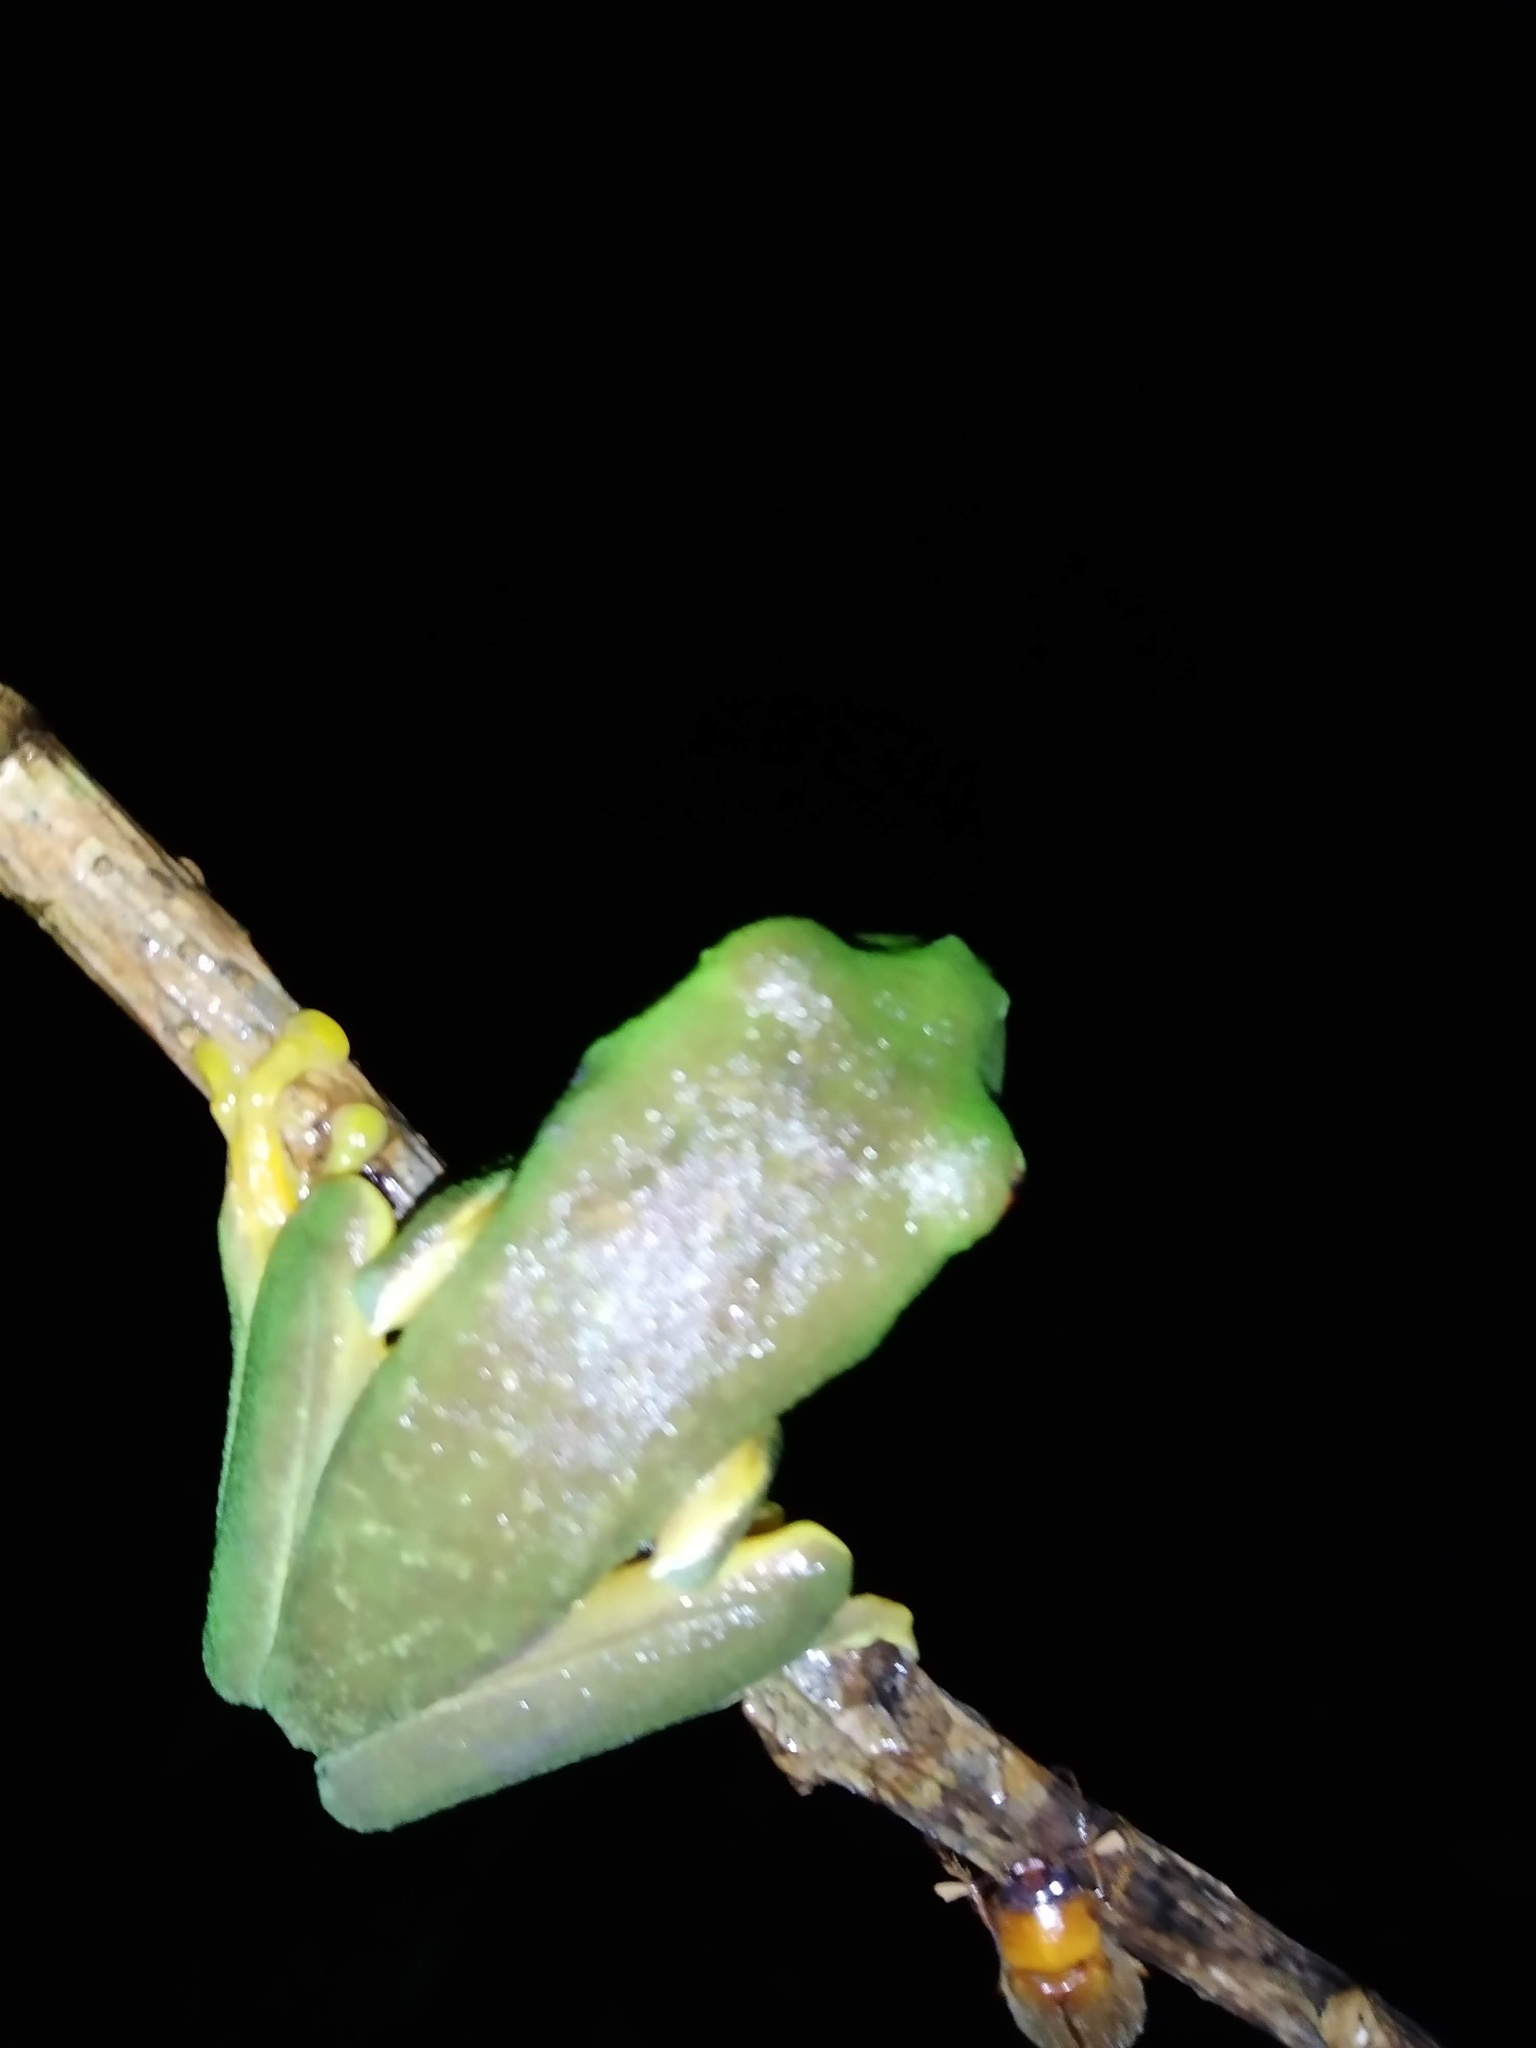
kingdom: Animalia
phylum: Chordata
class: Amphibia
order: Anura
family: Phyllomedusidae
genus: Agalychnis
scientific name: Agalychnis
